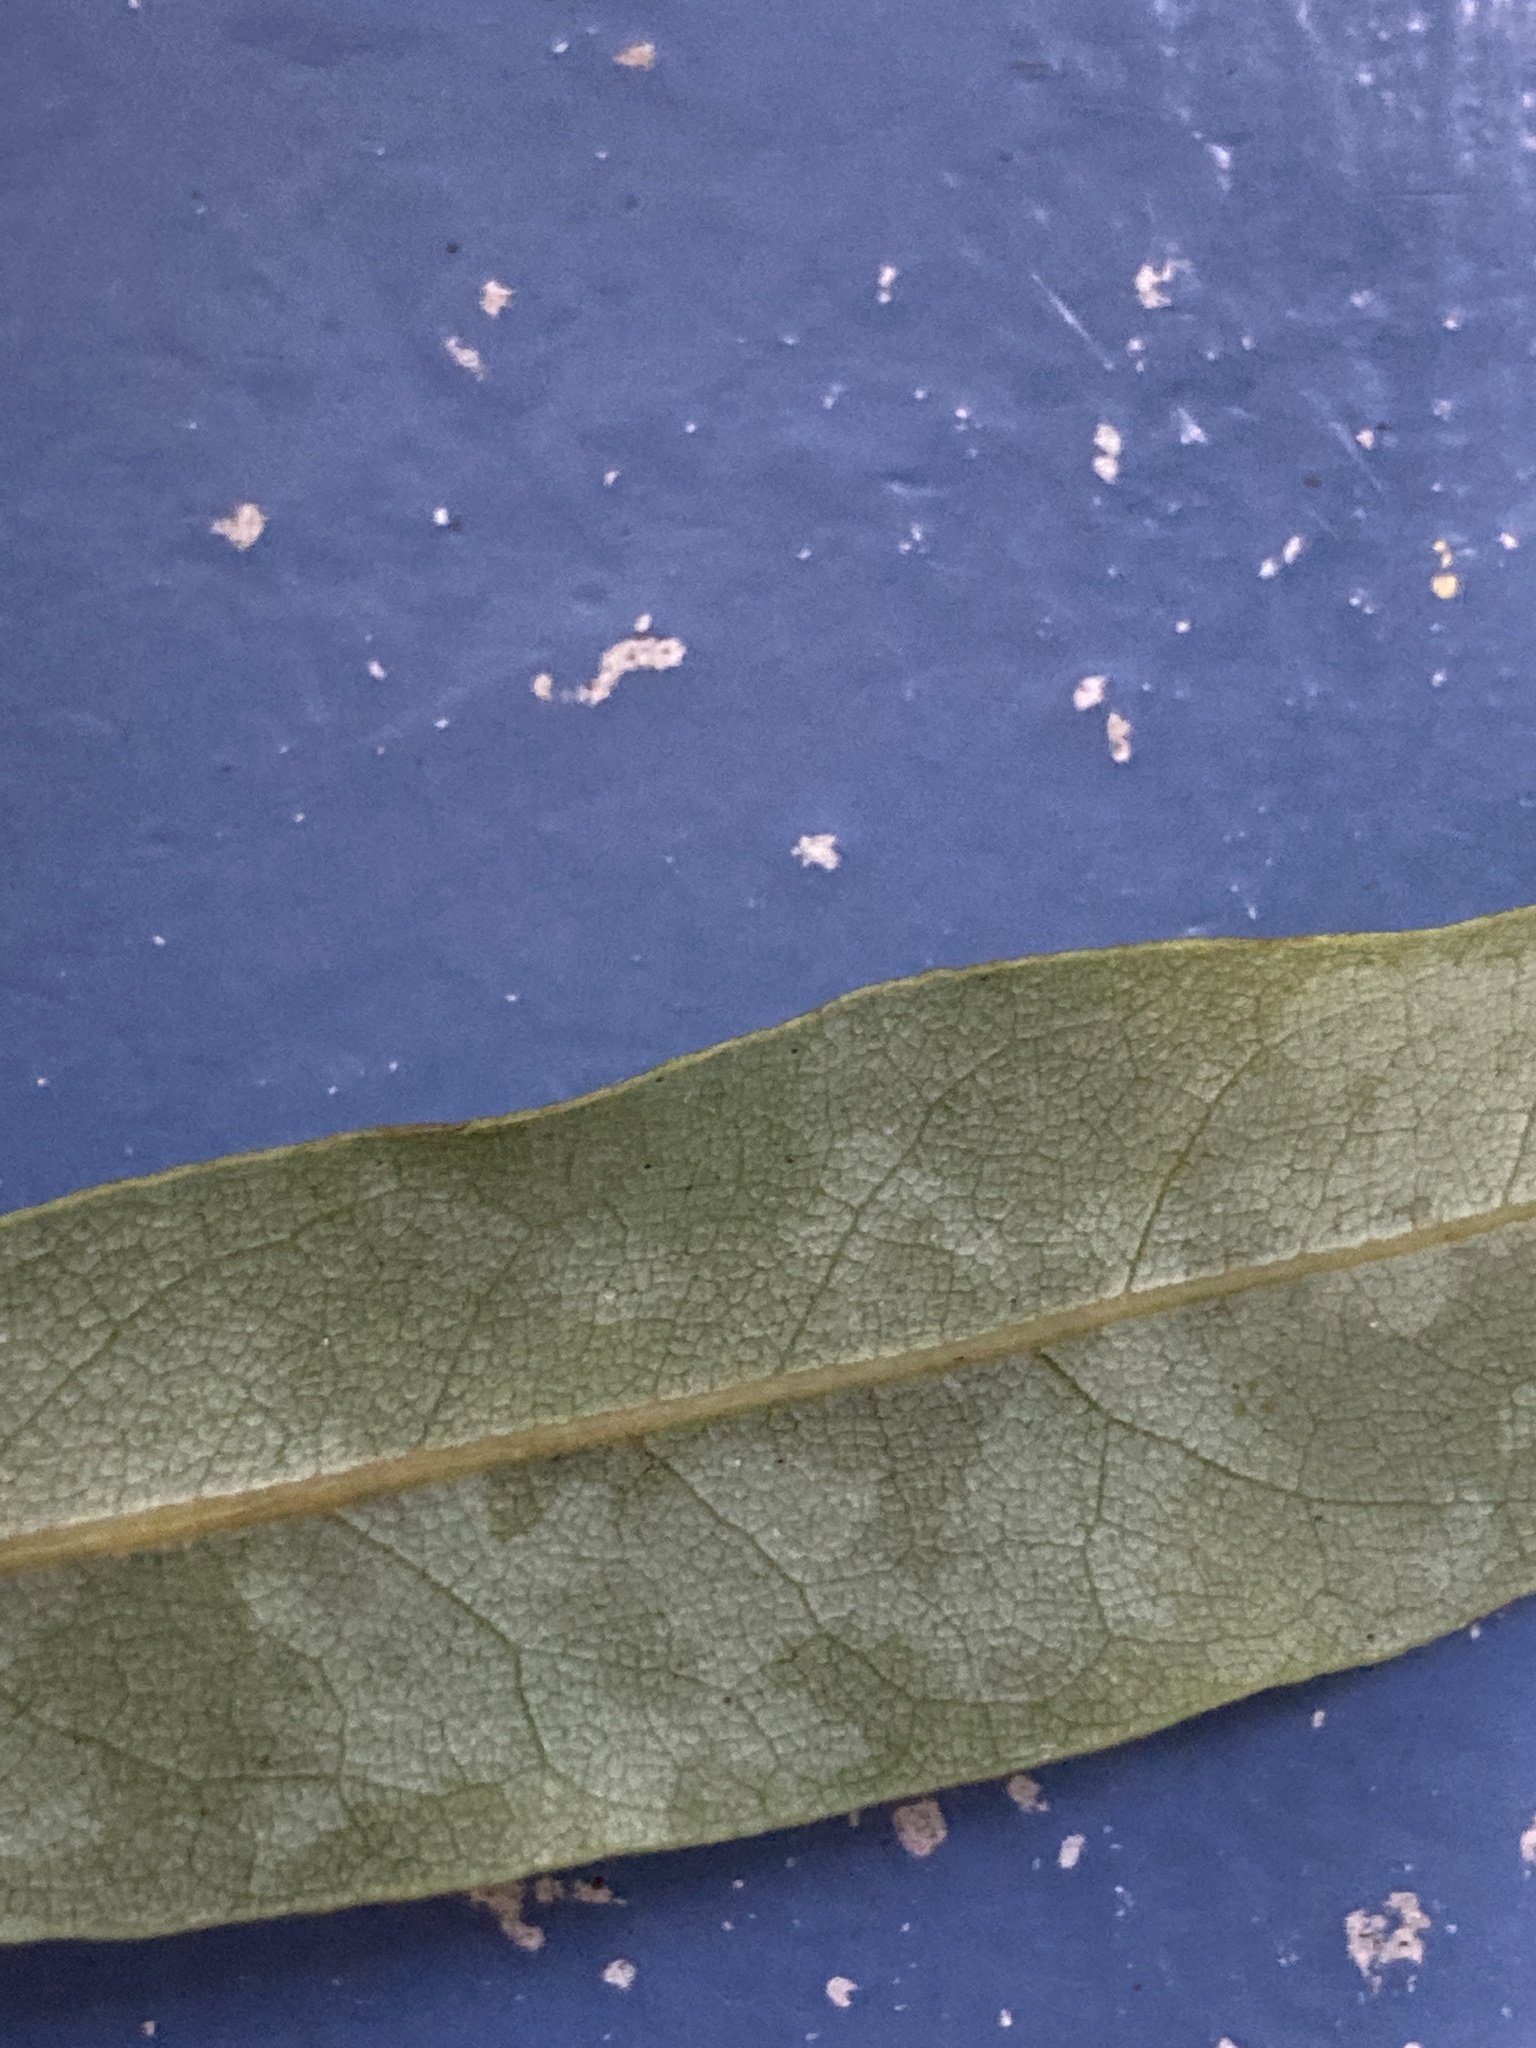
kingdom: Plantae
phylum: Tracheophyta
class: Magnoliopsida
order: Laurales
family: Lauraceae
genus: Beilschmiedia
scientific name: Beilschmiedia tawa
